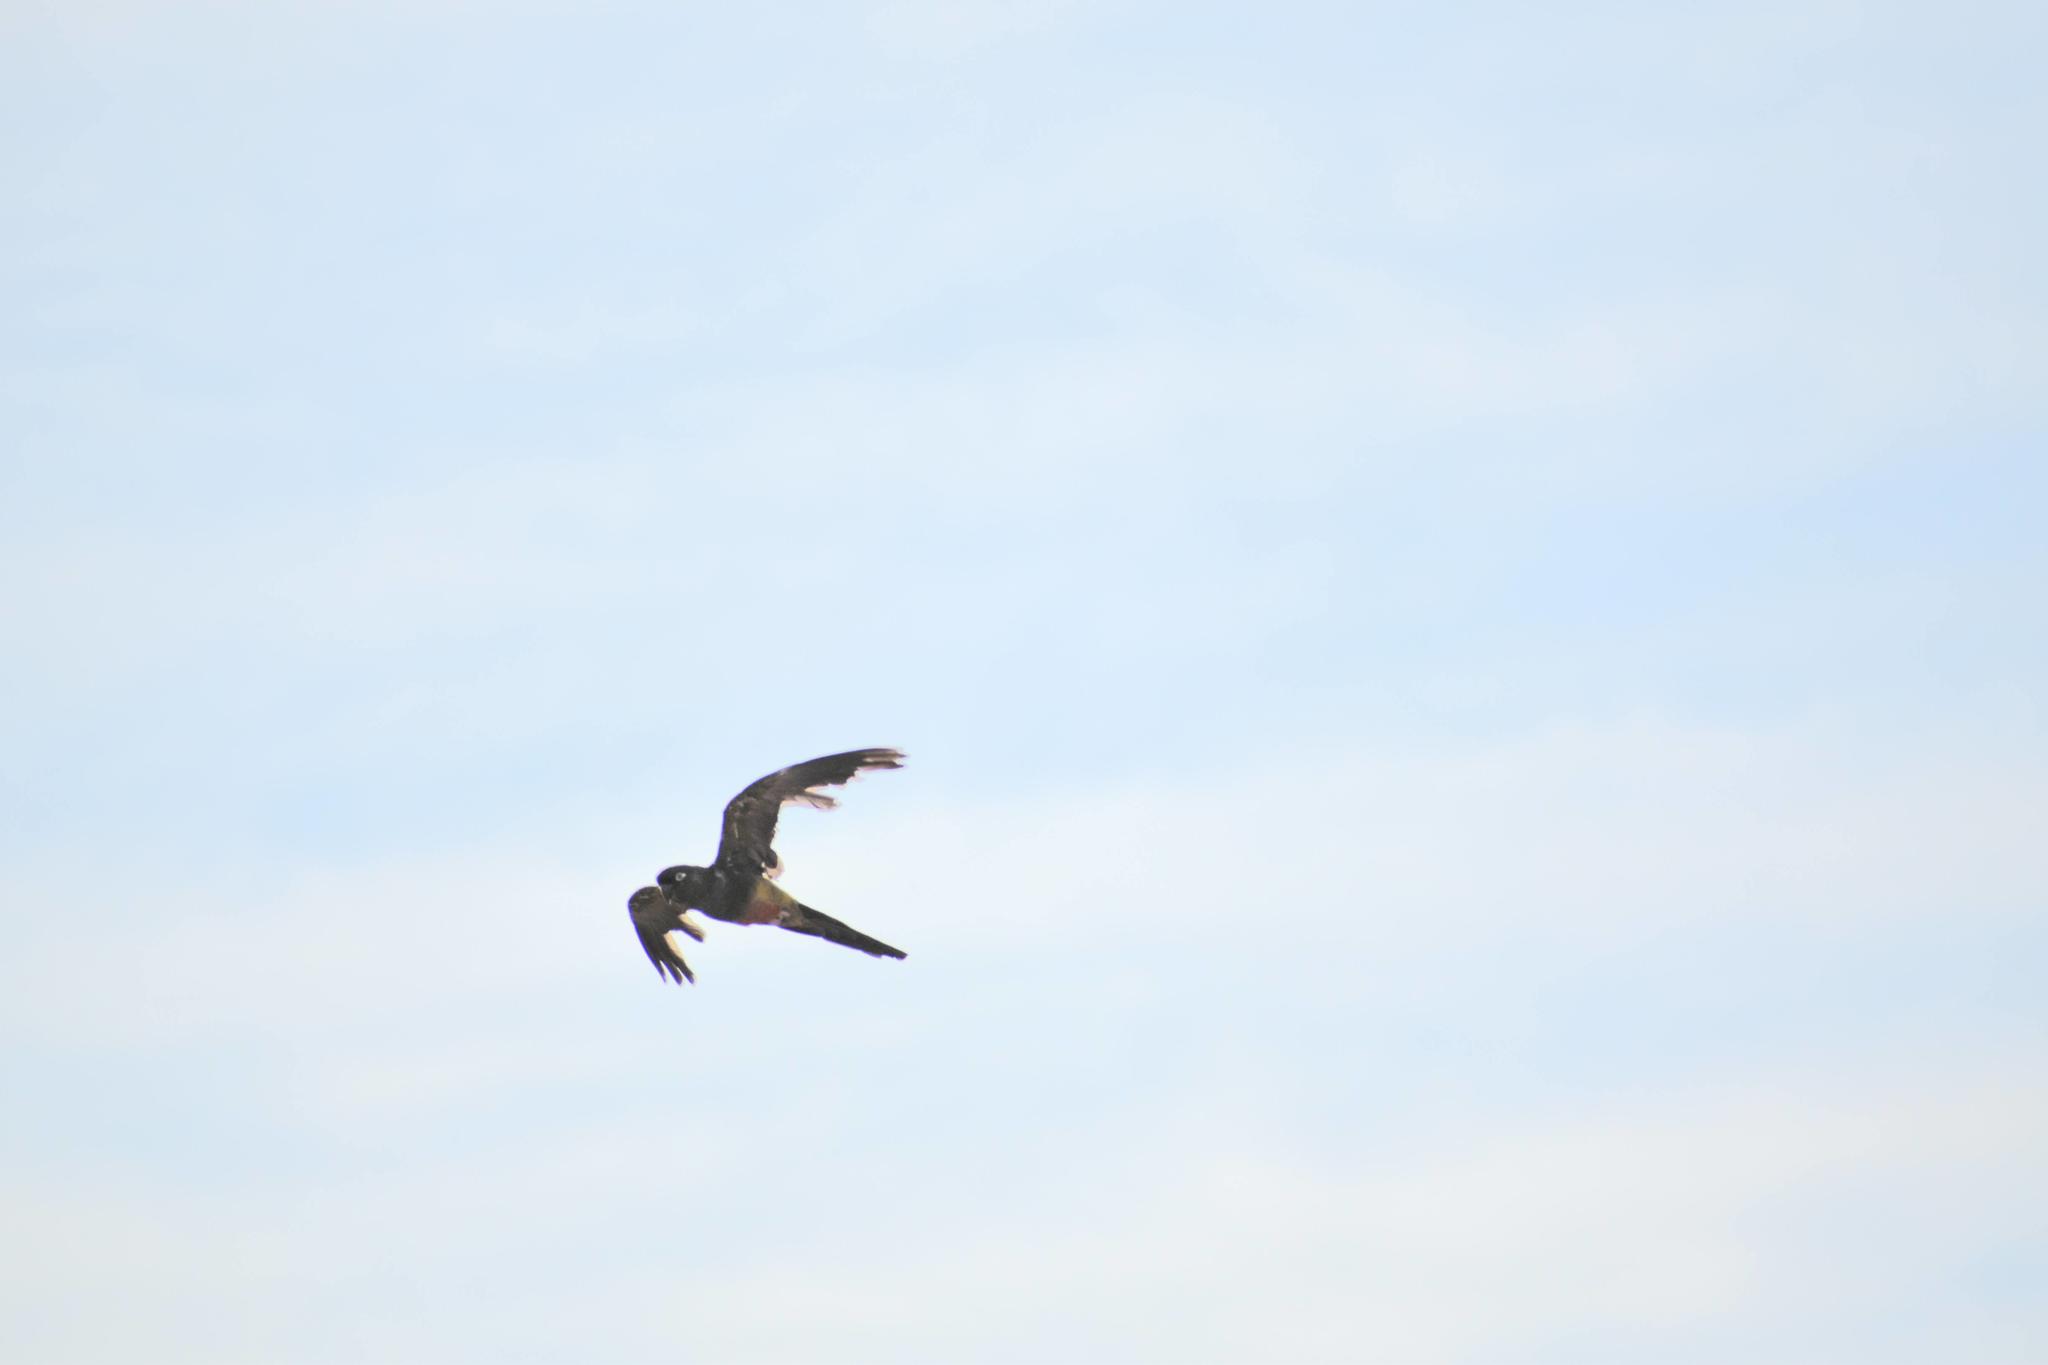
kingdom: Animalia
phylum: Chordata
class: Aves
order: Psittaciformes
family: Psittacidae
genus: Cyanoliseus
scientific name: Cyanoliseus patagonus
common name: Burrowing parrot
